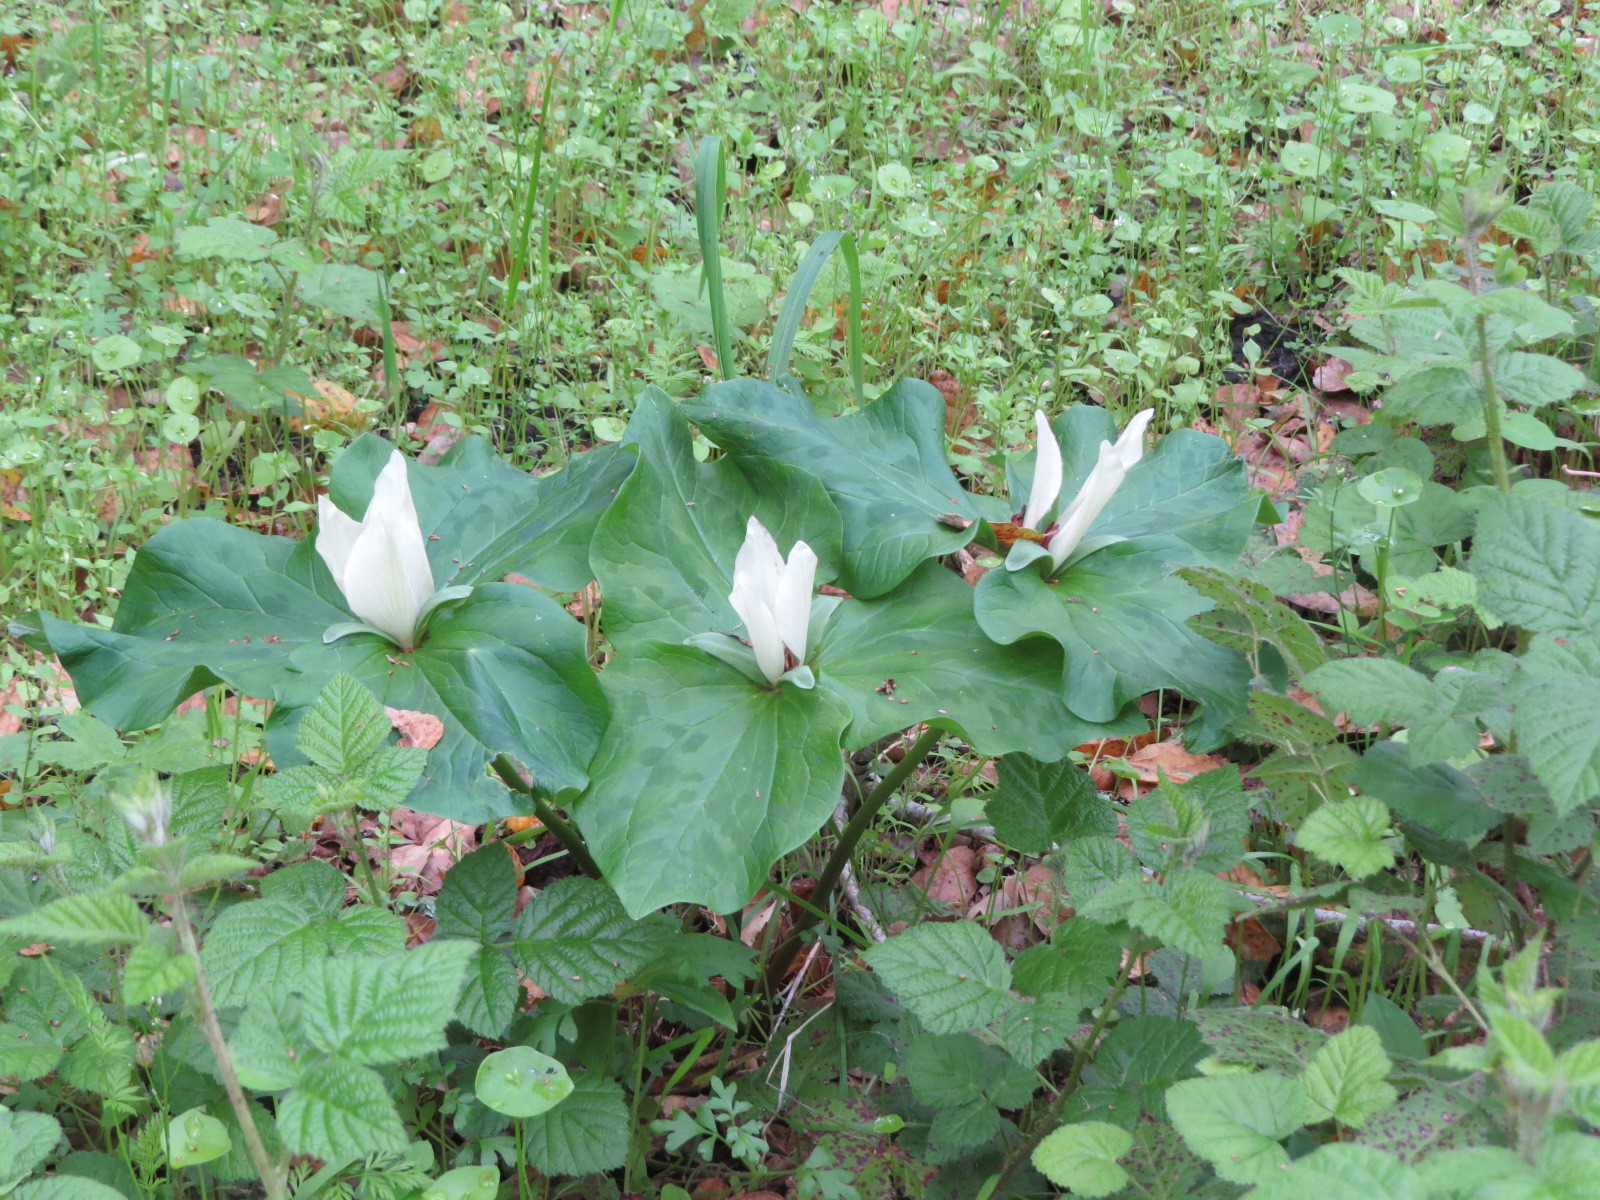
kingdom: Plantae
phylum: Tracheophyta
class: Liliopsida
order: Liliales
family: Melanthiaceae
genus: Trillium
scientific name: Trillium chloropetalum
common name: Giant trillium
